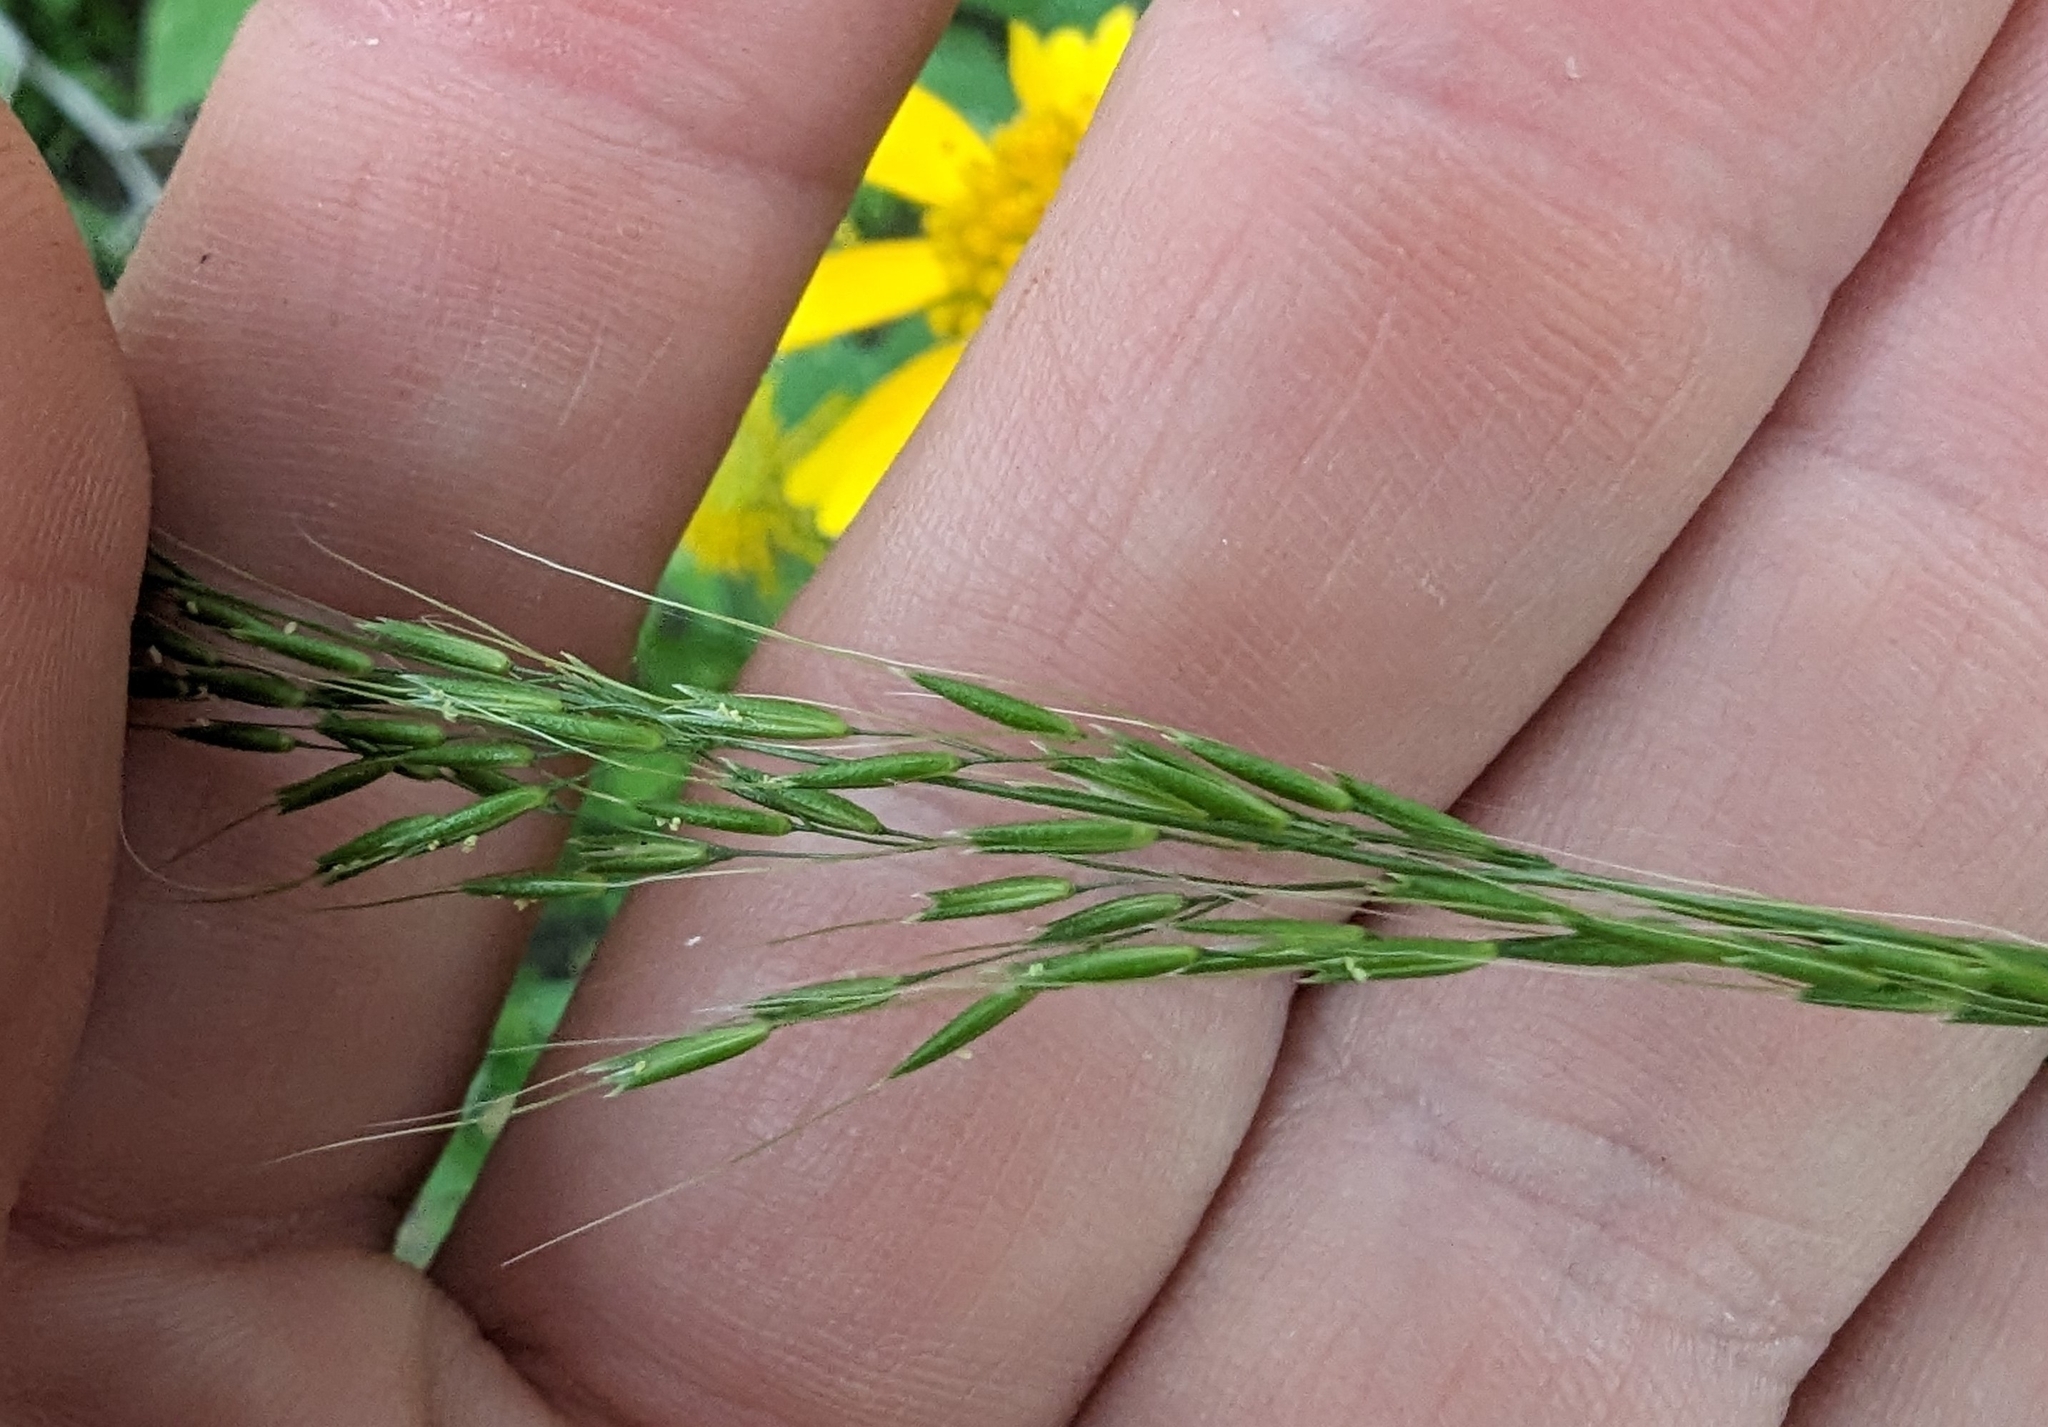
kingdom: Plantae
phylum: Tracheophyta
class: Liliopsida
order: Poales
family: Poaceae
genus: Limnodea
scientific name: Limnodea arkansana
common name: Ozark-grass
